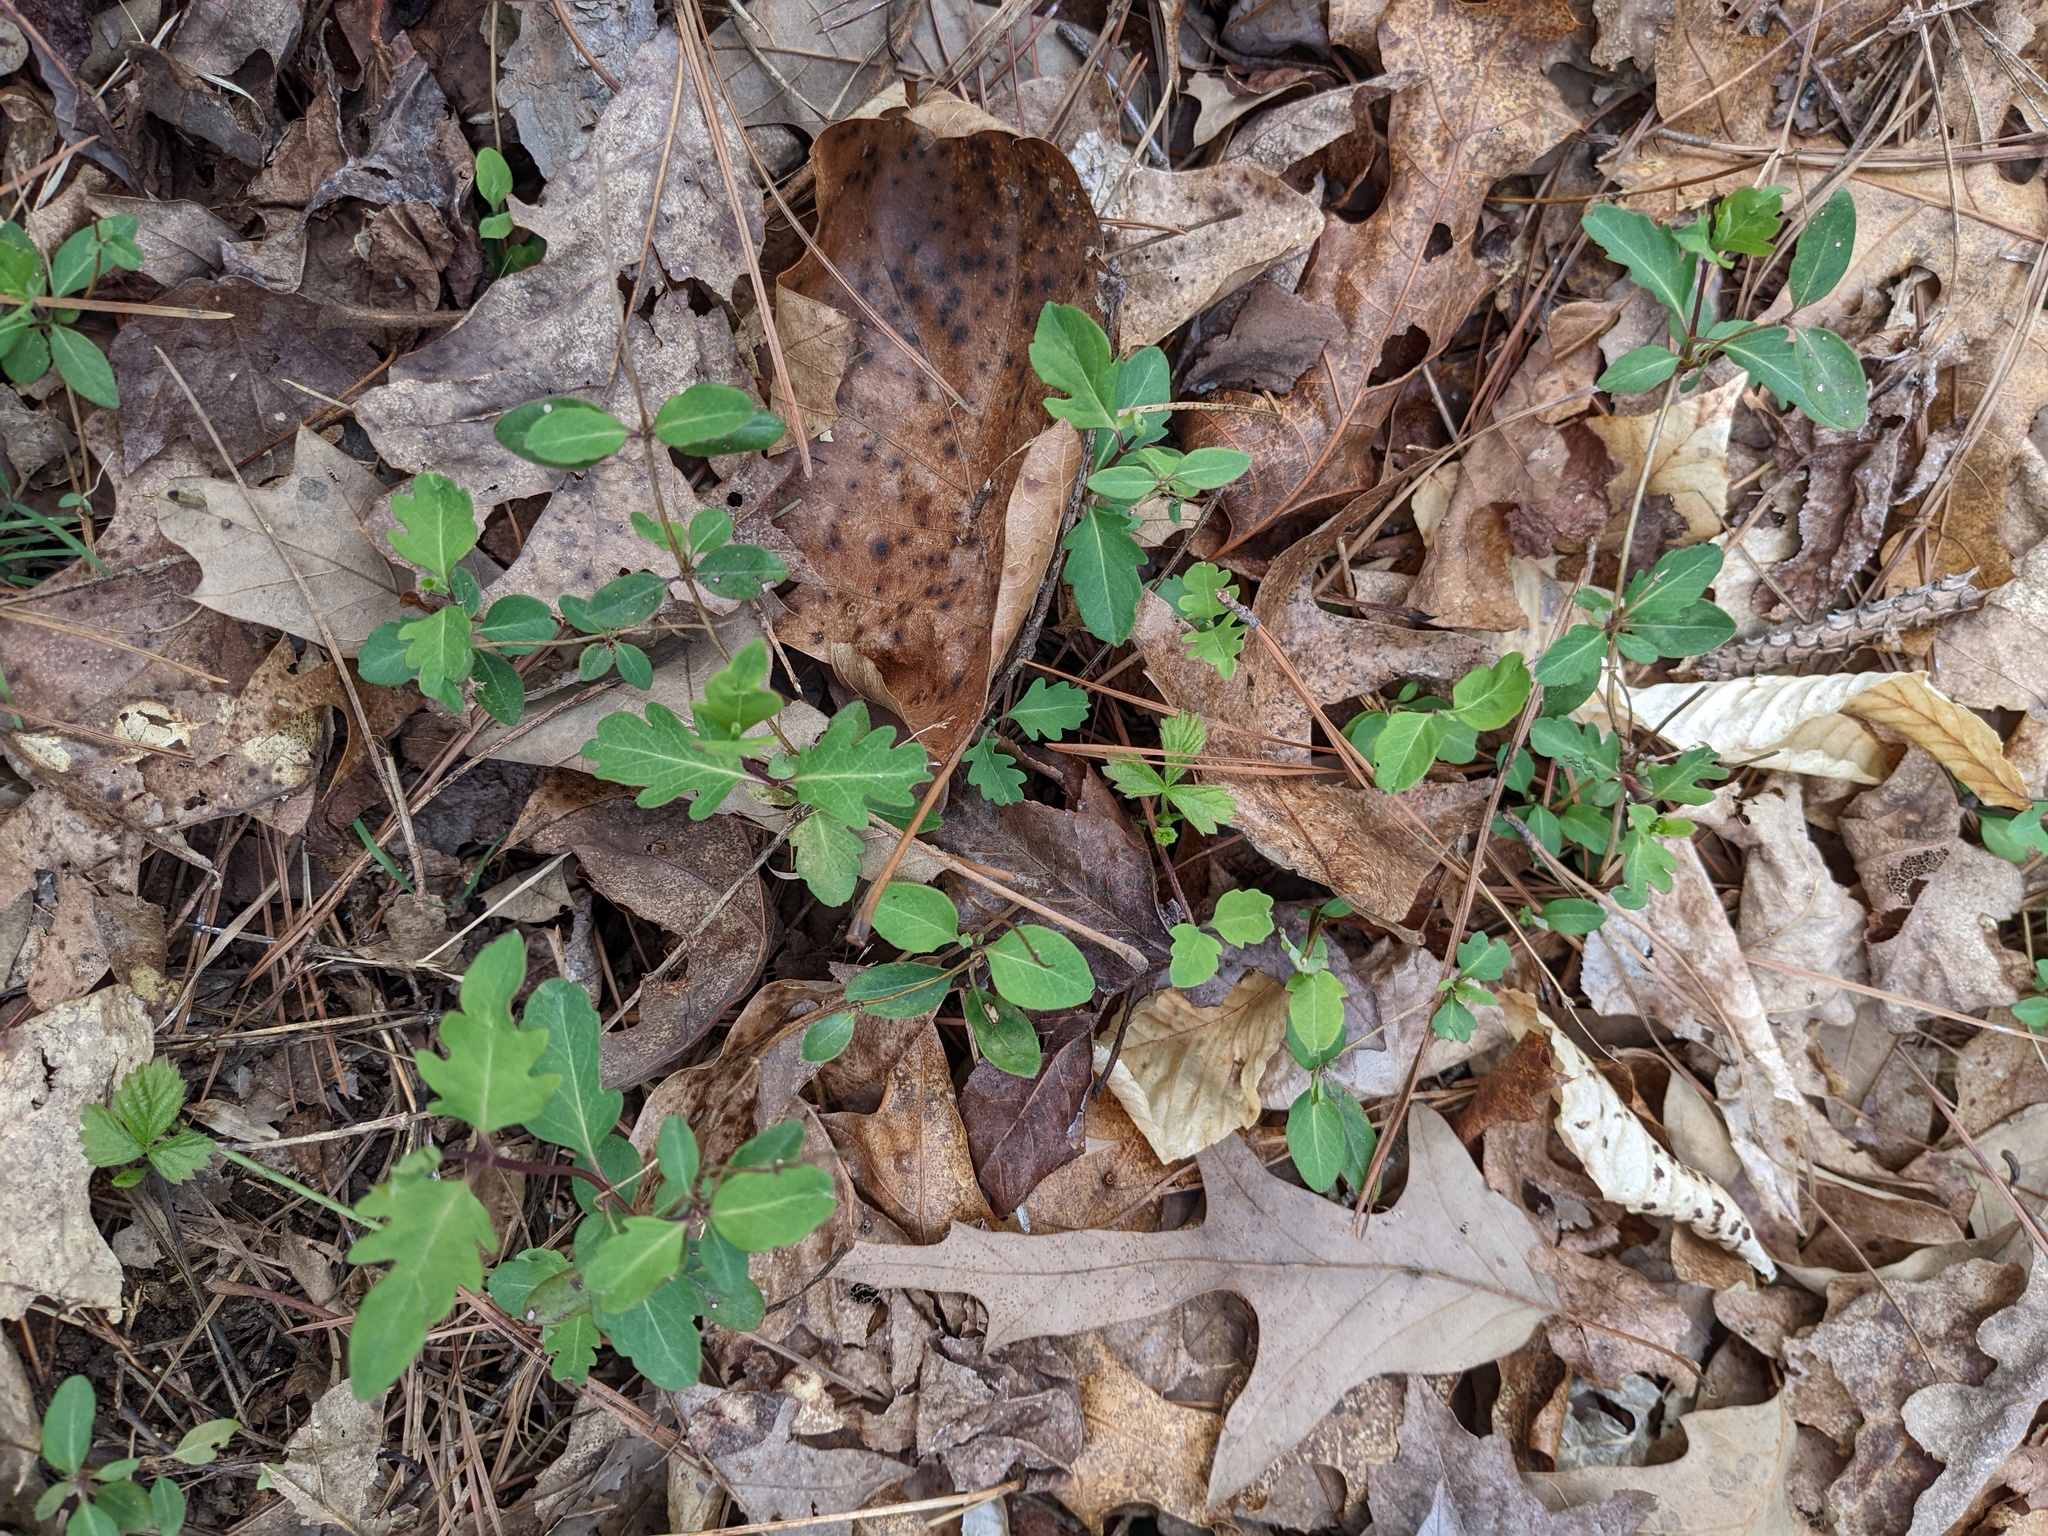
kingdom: Plantae
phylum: Tracheophyta
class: Magnoliopsida
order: Dipsacales
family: Caprifoliaceae
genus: Lonicera
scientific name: Lonicera japonica
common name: Japanese honeysuckle
